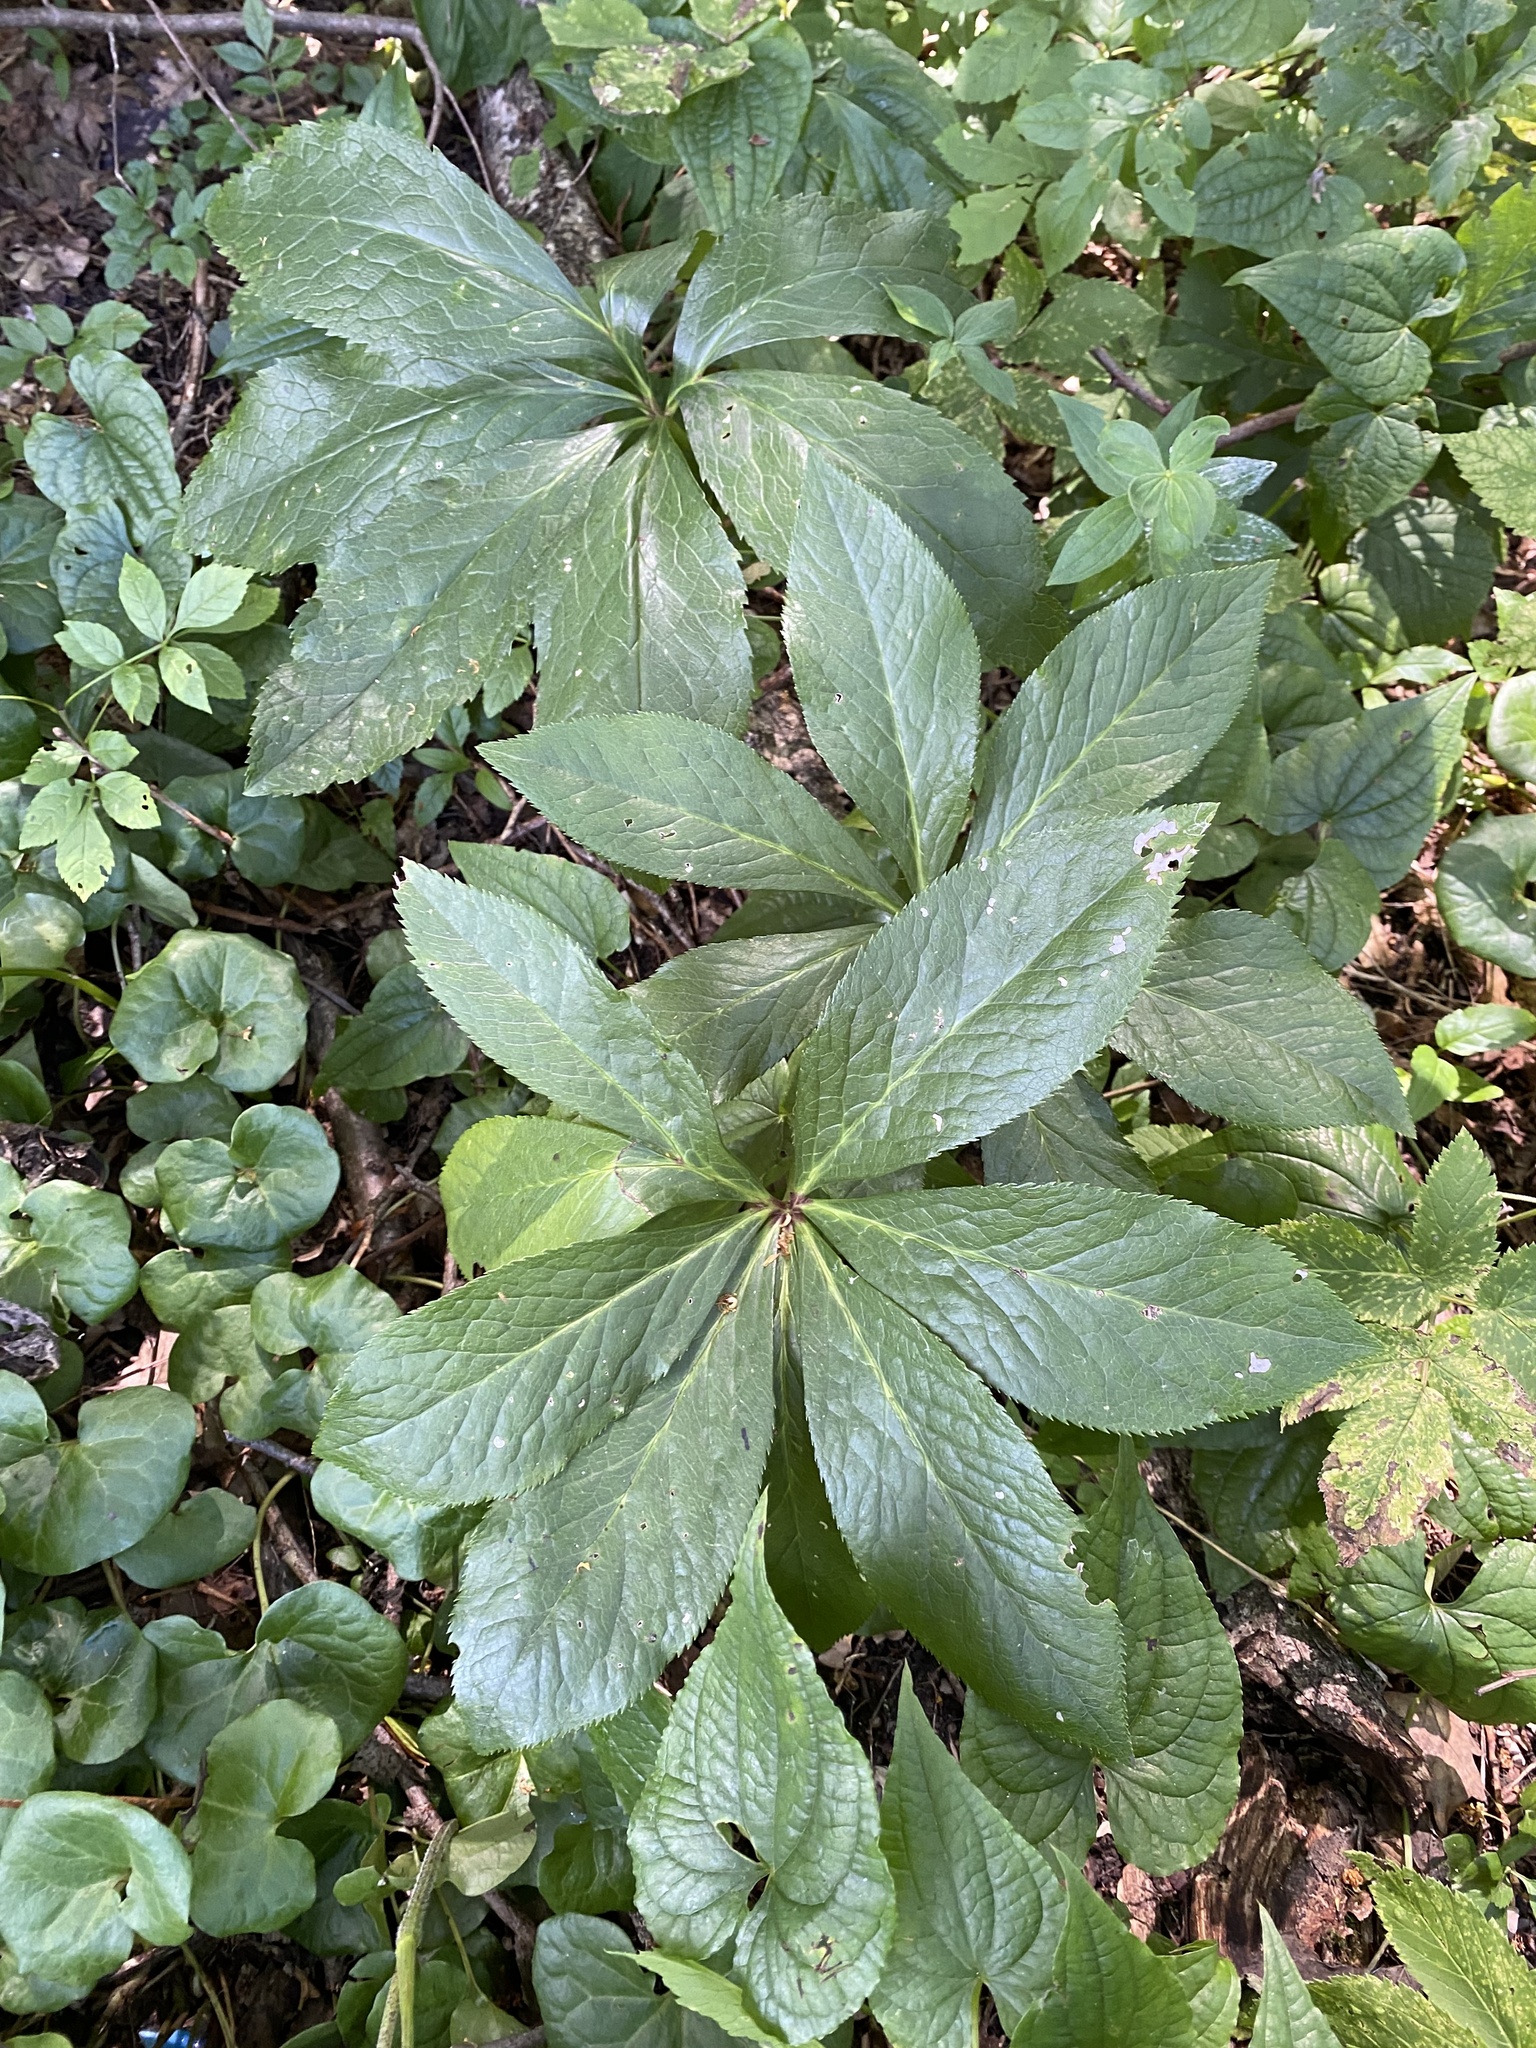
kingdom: Plantae
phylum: Tracheophyta
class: Magnoliopsida
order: Ranunculales
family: Ranunculaceae
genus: Helleborus
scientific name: Helleborus orientalis
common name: Lenten-rose
